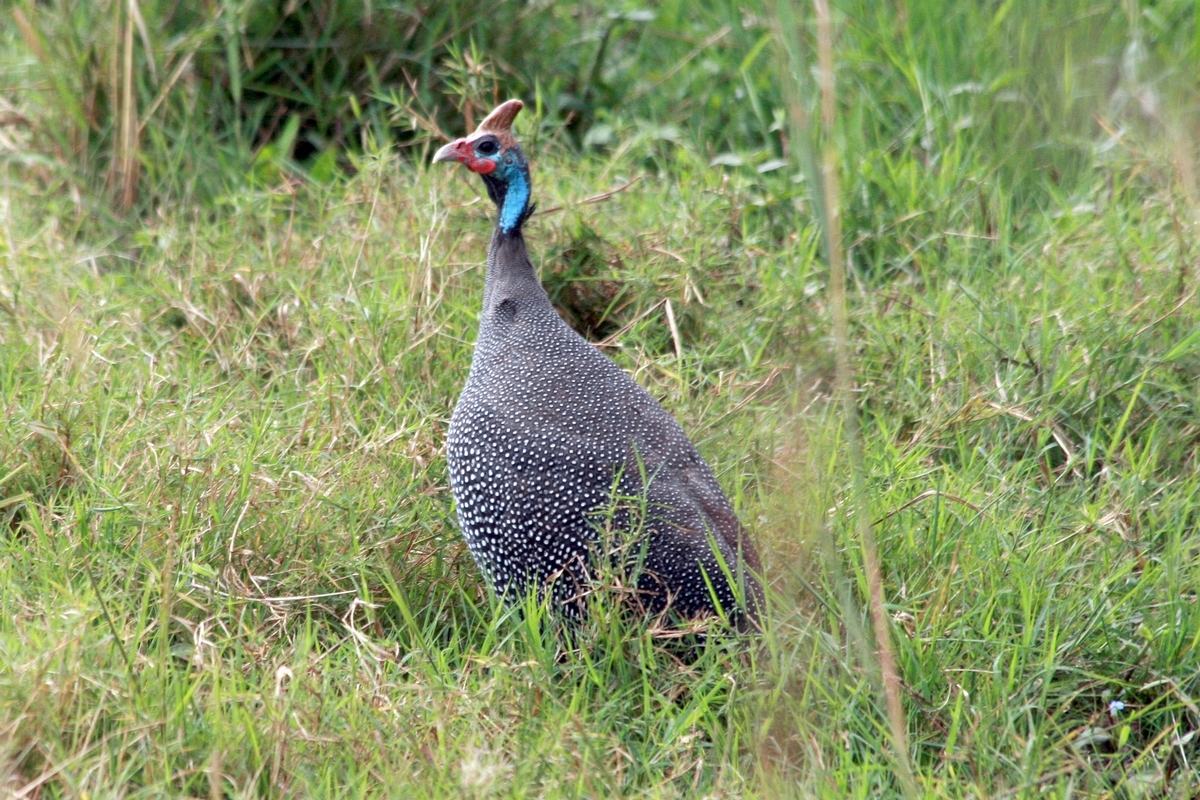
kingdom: Animalia
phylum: Chordata
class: Aves
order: Galliformes
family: Numididae
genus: Numida
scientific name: Numida meleagris
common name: Helmeted guineafowl
